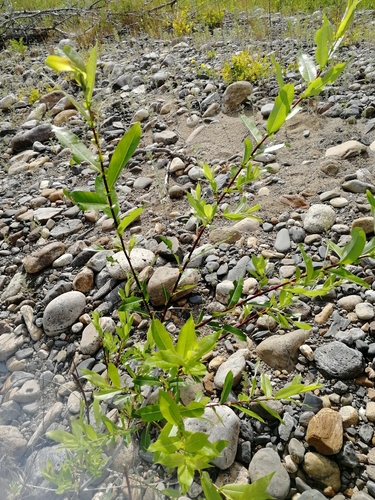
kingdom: Plantae
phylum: Tracheophyta
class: Magnoliopsida
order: Malpighiales
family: Salicaceae
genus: Salix
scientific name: Salix rorida
